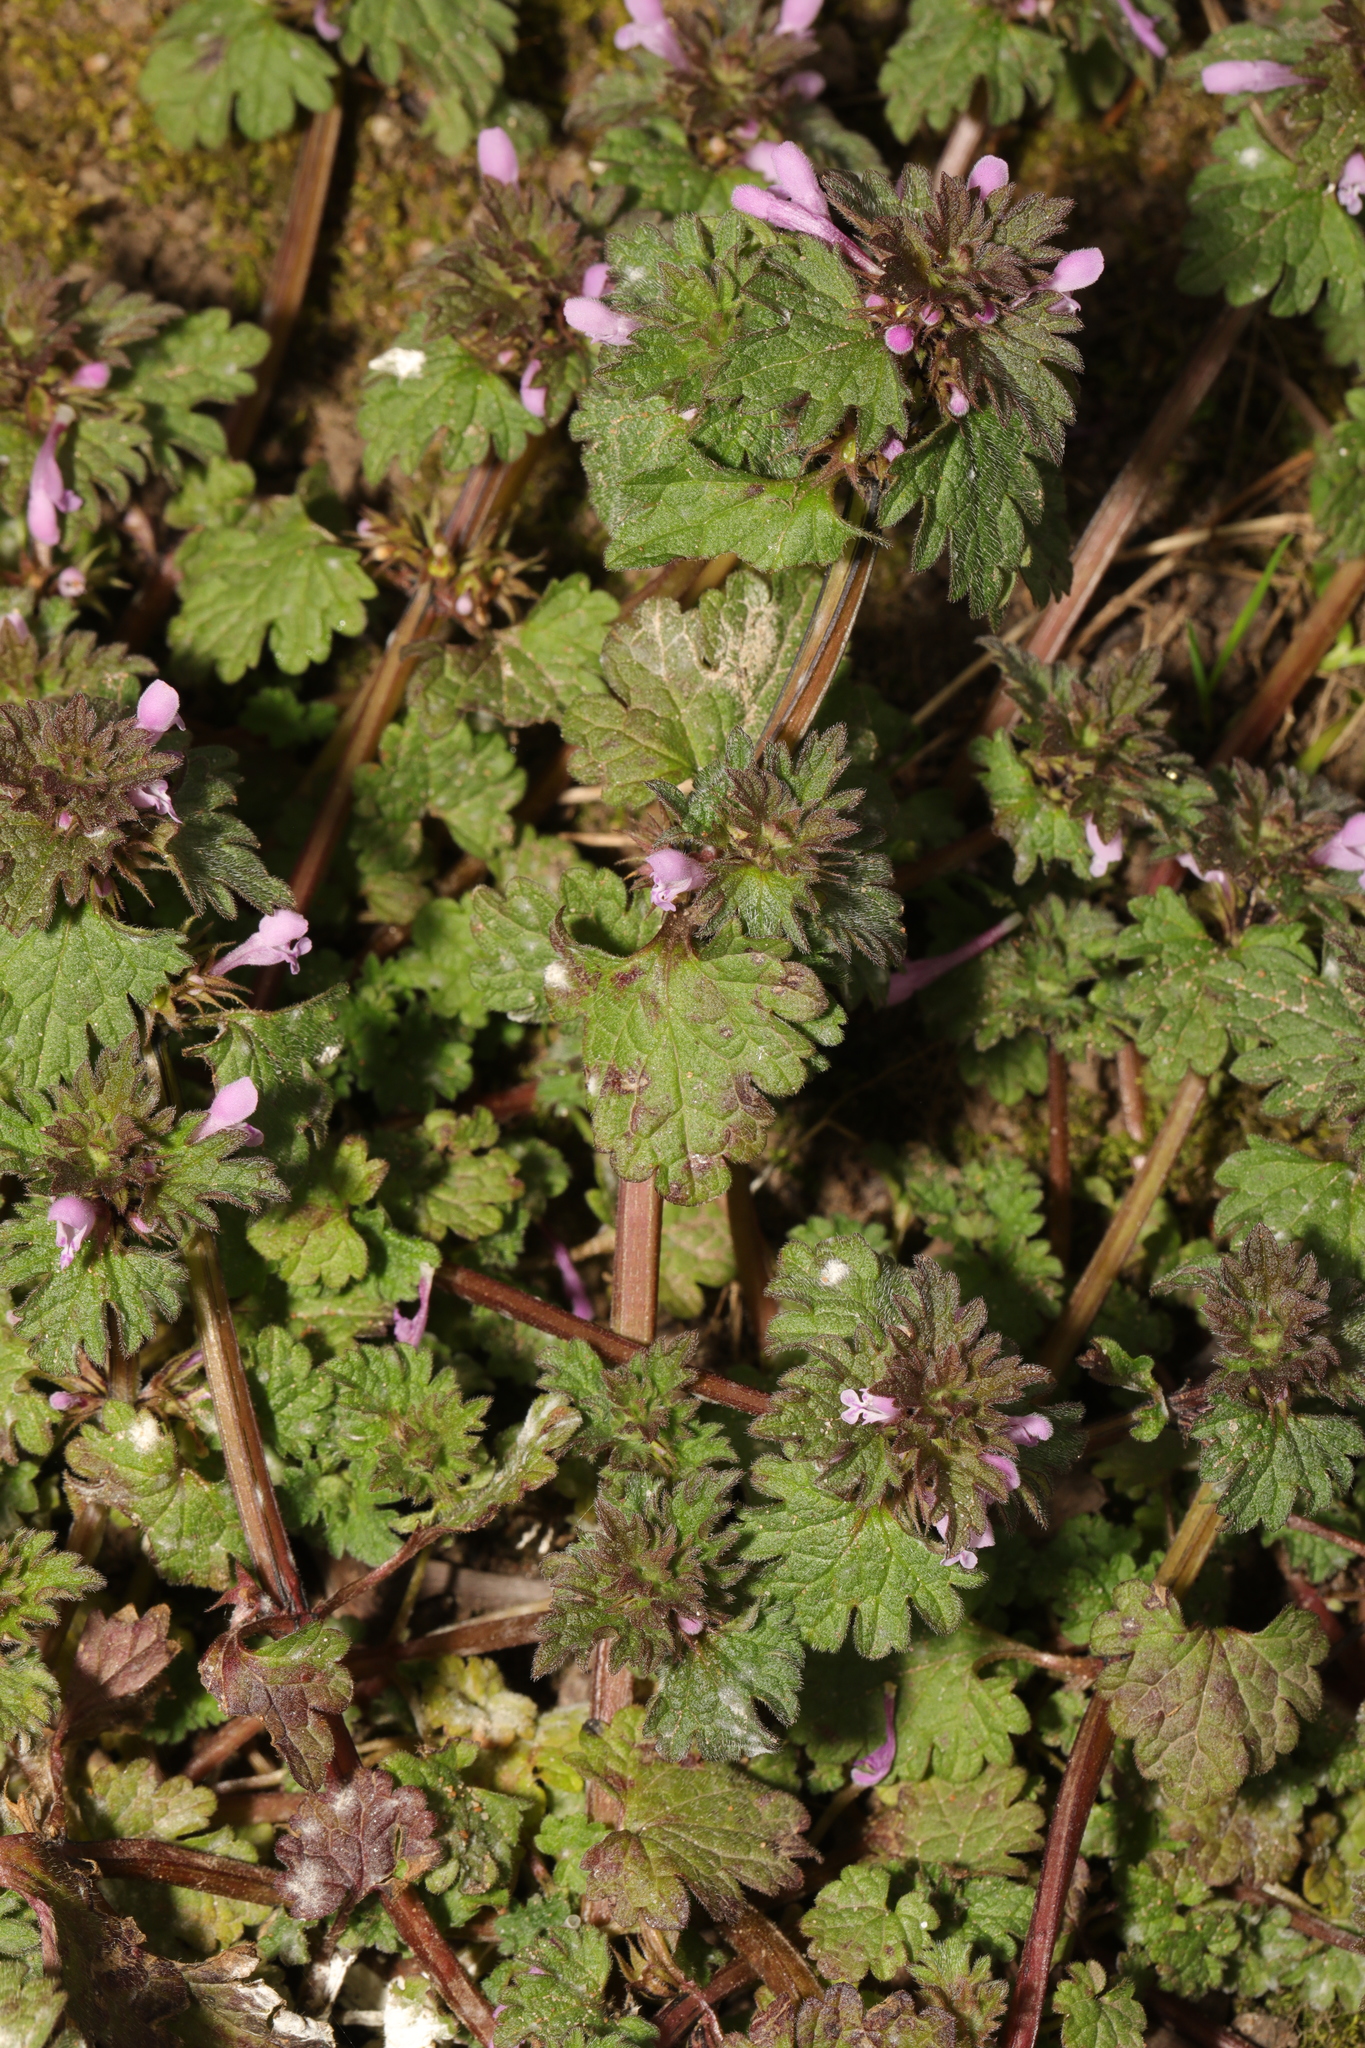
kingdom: Plantae
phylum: Tracheophyta
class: Magnoliopsida
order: Lamiales
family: Lamiaceae
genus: Lamium
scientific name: Lamium purpureum
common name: Red dead-nettle
